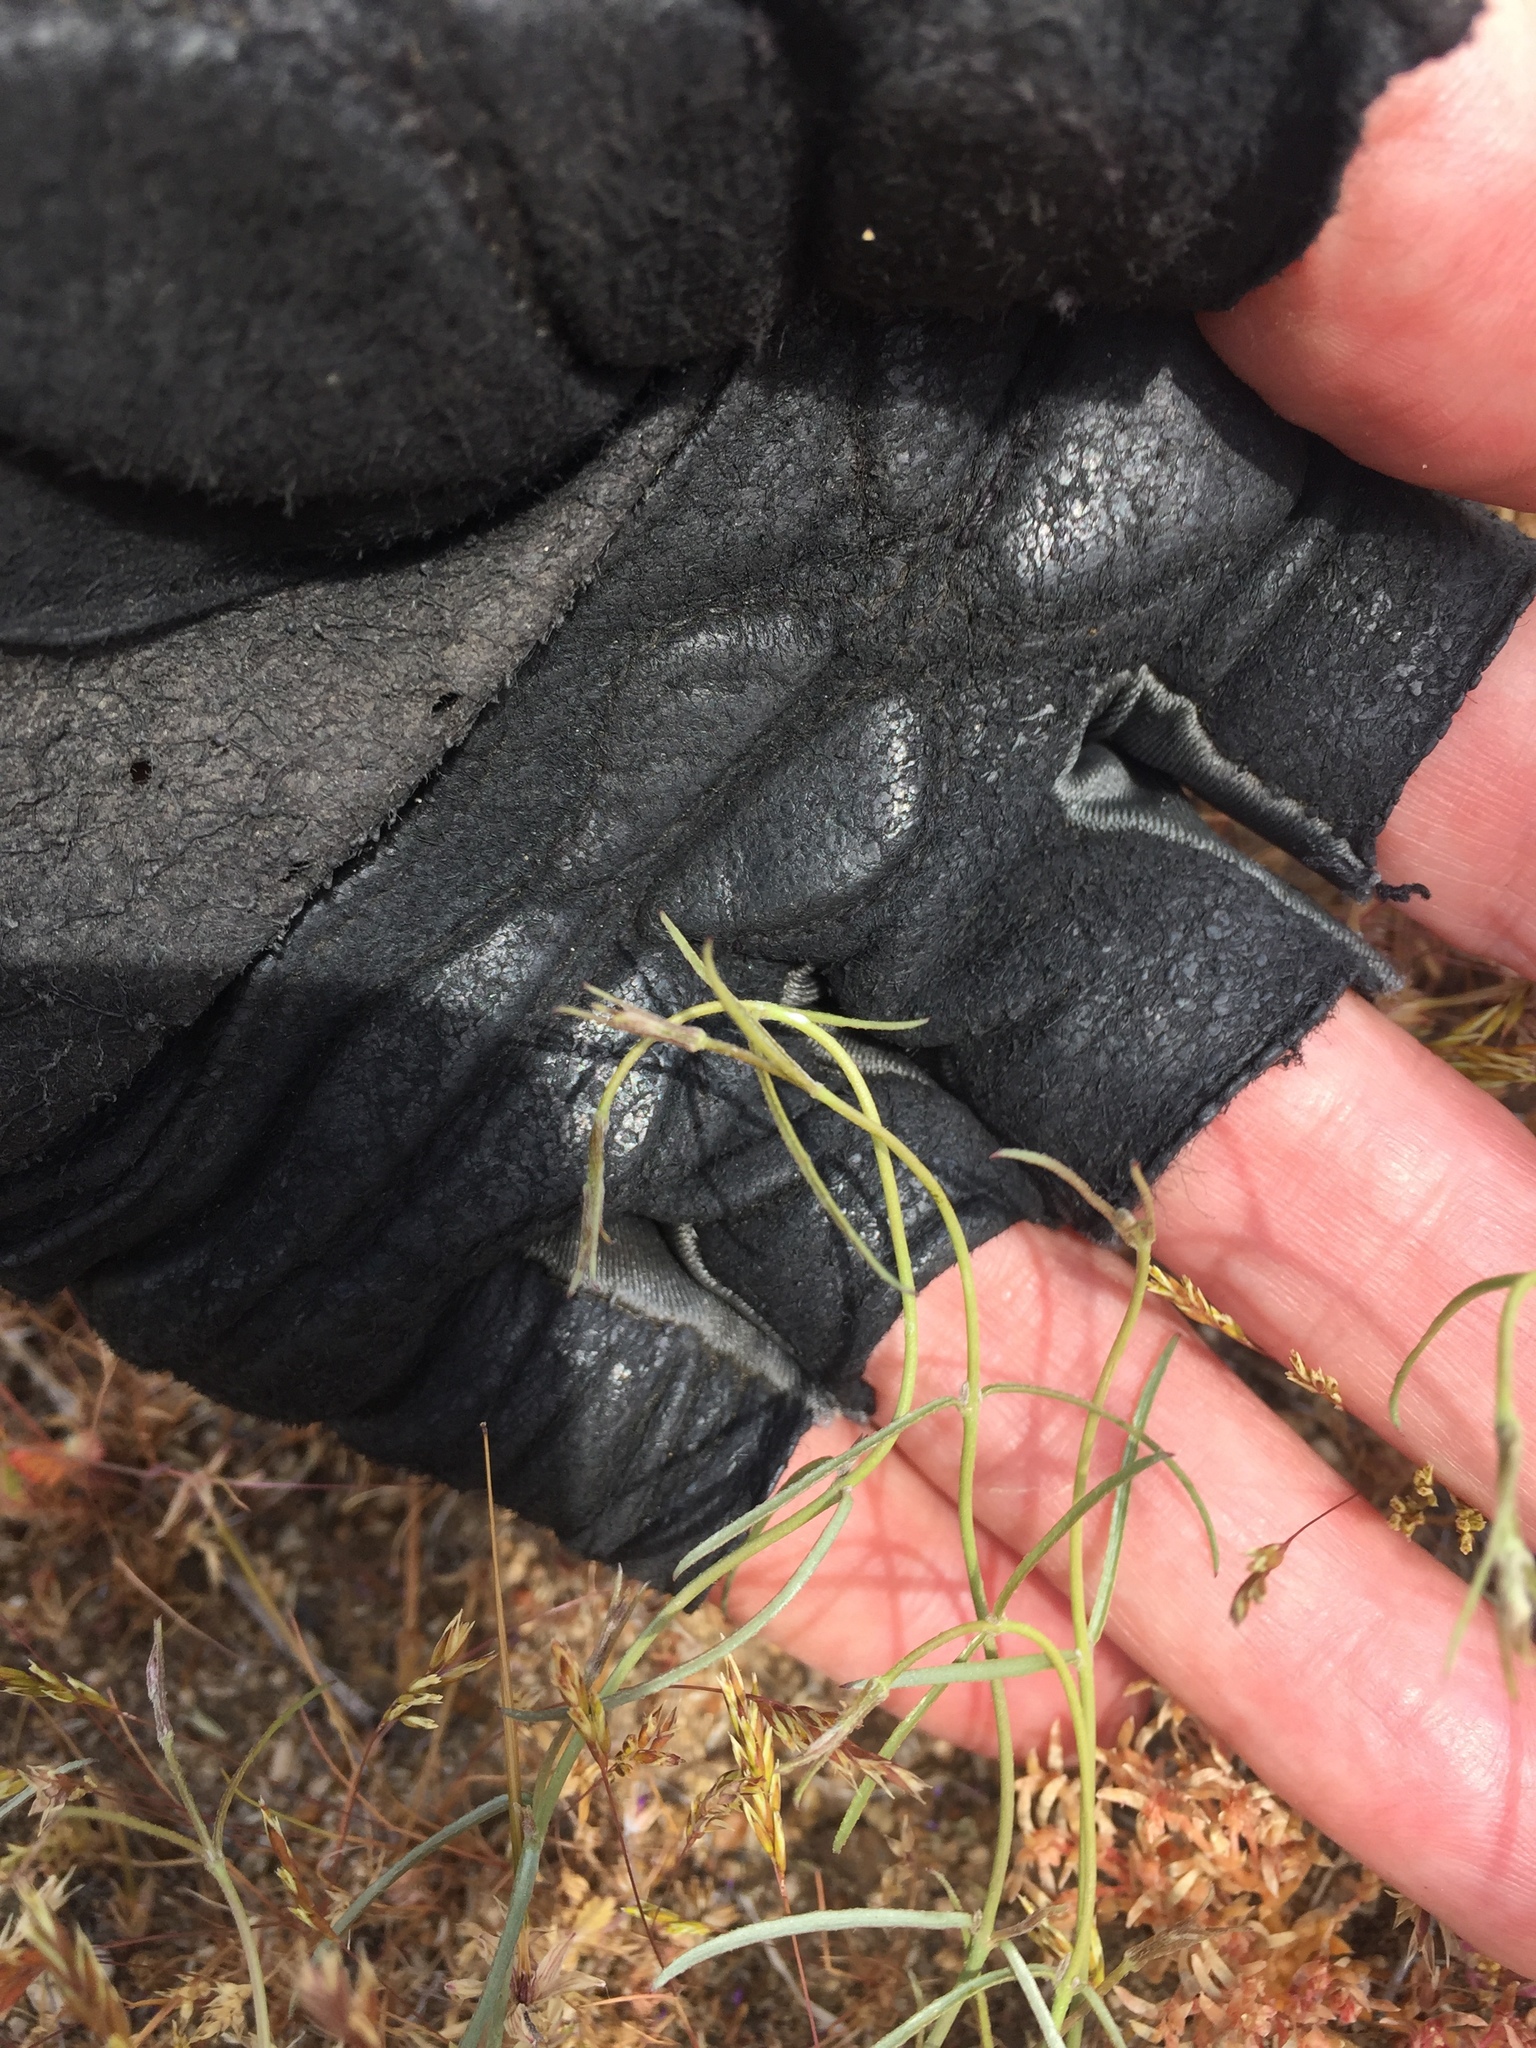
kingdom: Plantae
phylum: Tracheophyta
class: Magnoliopsida
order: Gentianales
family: Apocynaceae
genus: Funastrum
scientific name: Funastrum utahense
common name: Utah swallow-wort
